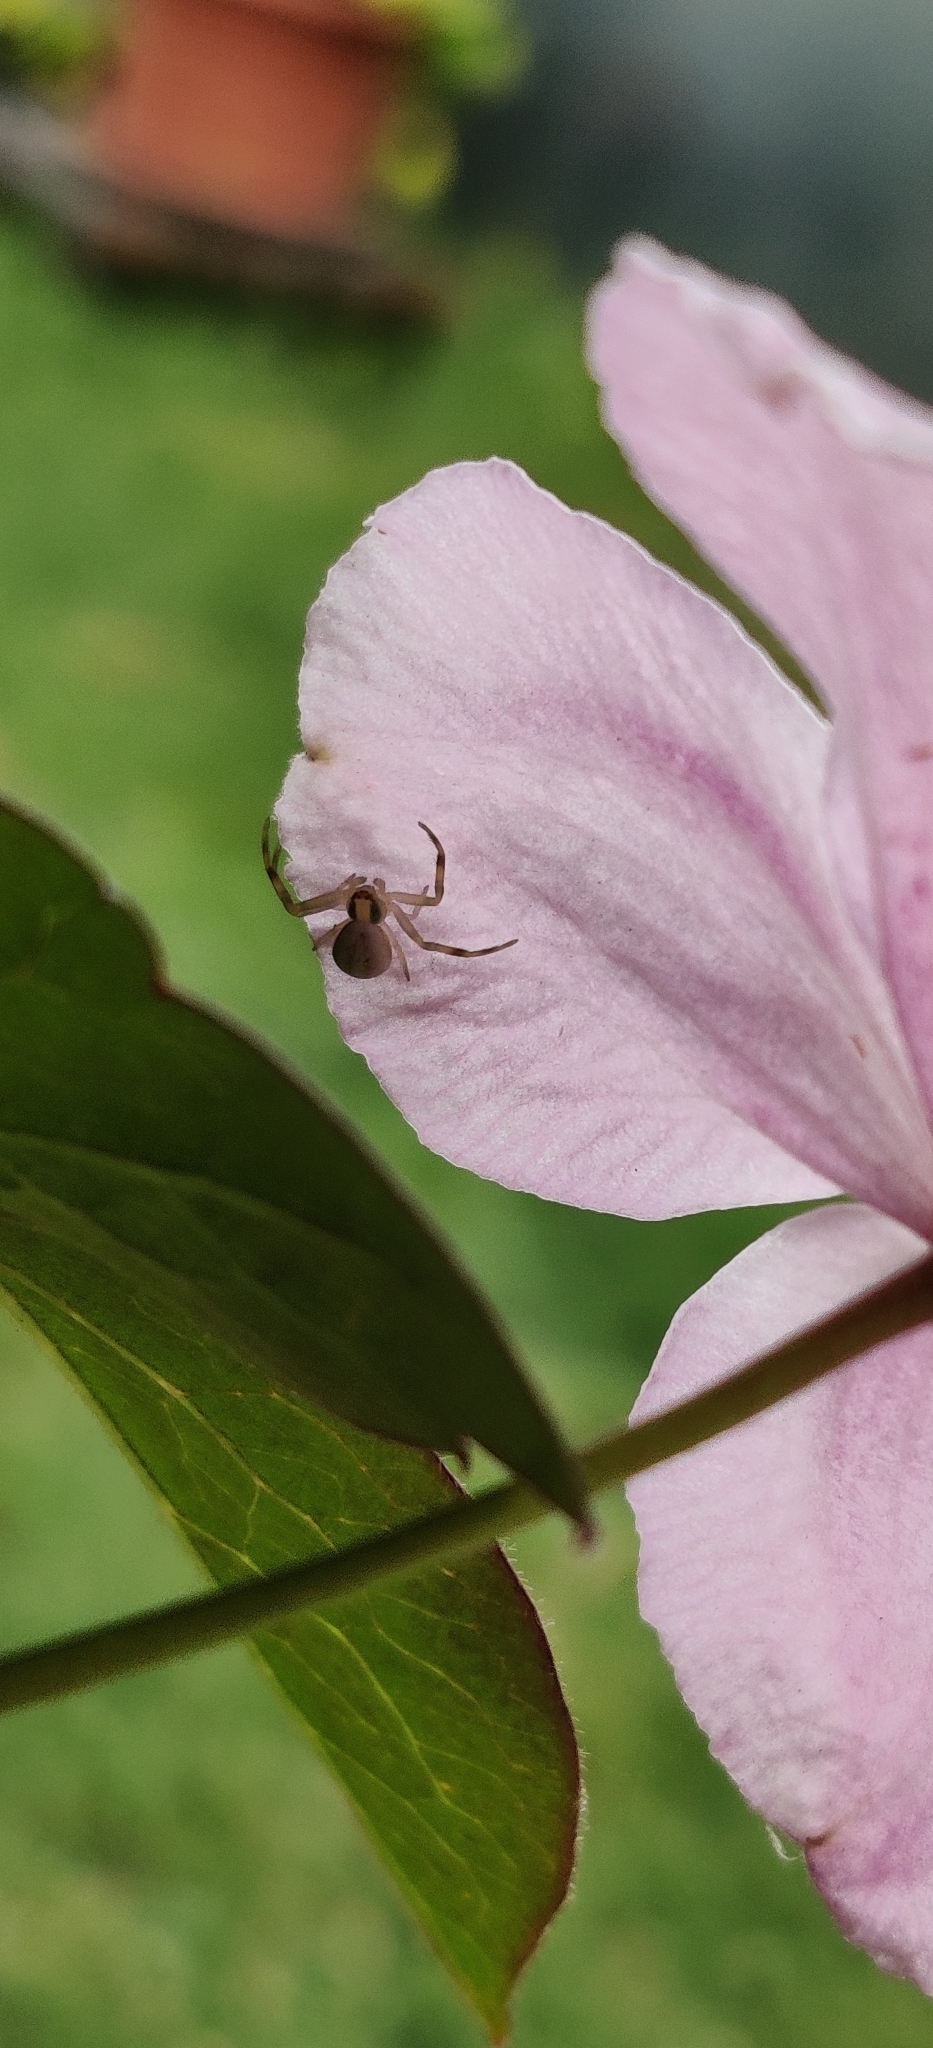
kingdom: Animalia
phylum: Arthropoda
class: Arachnida
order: Araneae
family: Thomisidae
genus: Misumena
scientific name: Misumena vatia
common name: Goldenrod crab spider
